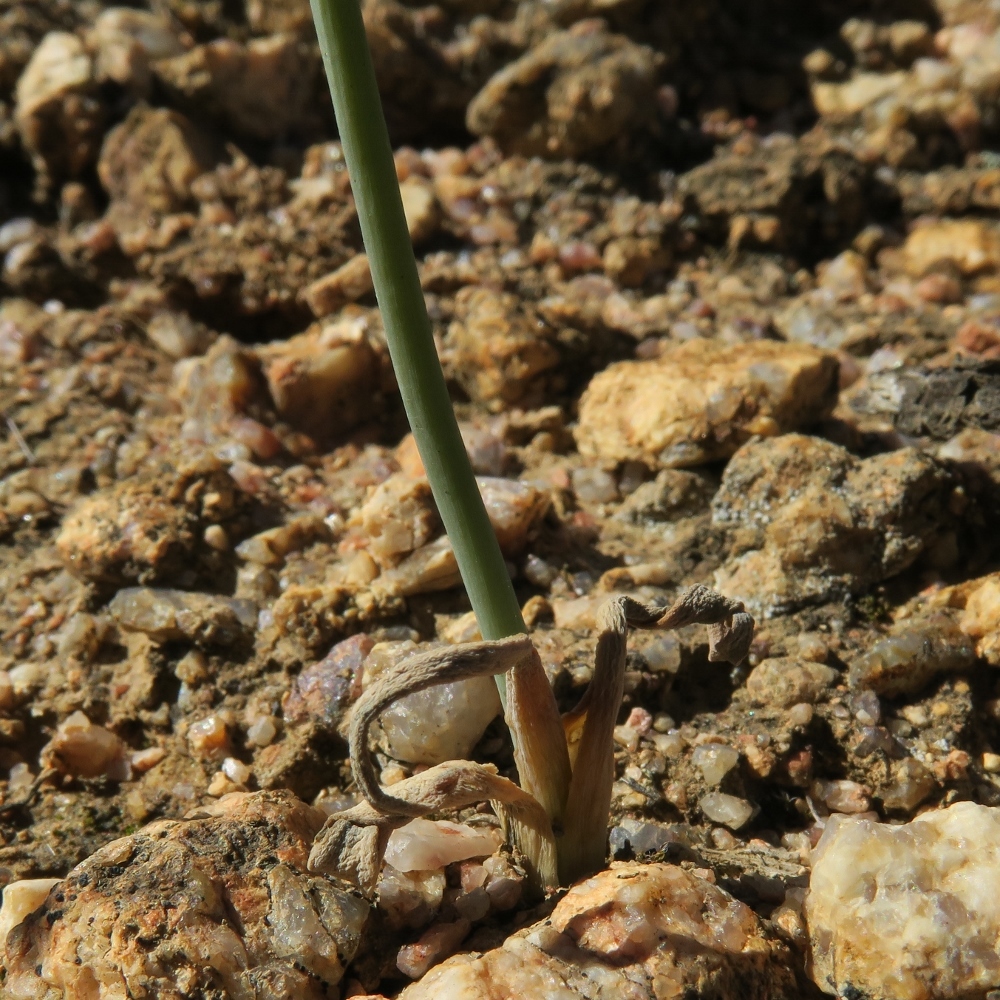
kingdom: Plantae
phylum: Tracheophyta
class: Liliopsida
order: Asparagales
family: Asparagaceae
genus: Ornithogalum
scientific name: Ornithogalum maculatum
